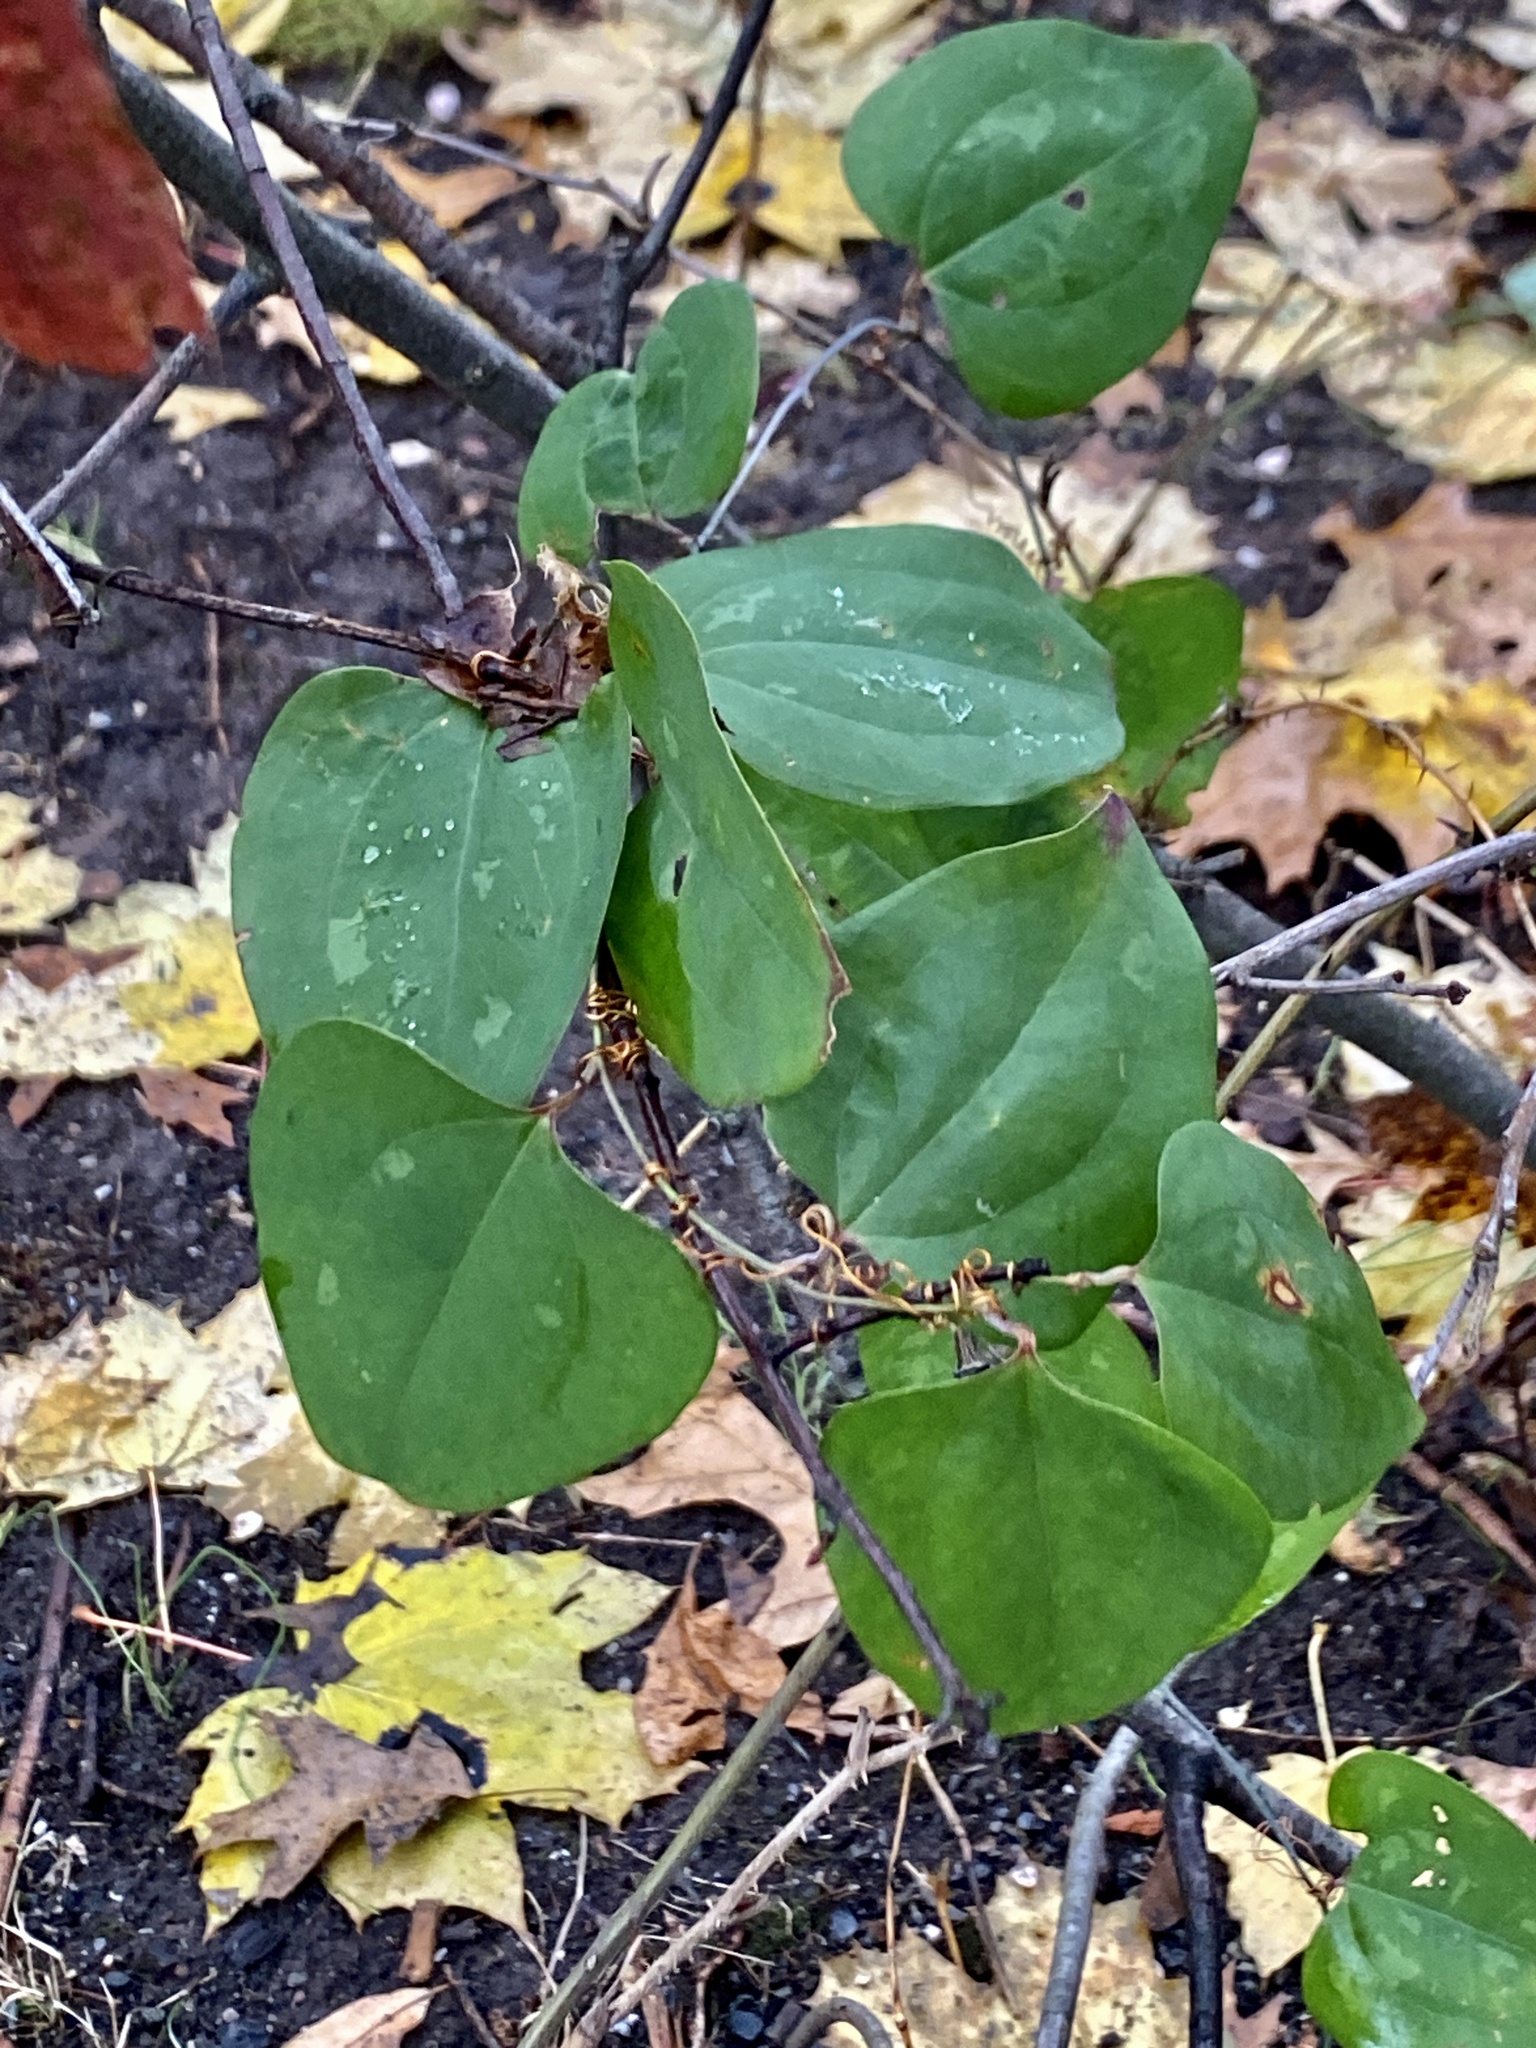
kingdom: Plantae
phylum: Tracheophyta
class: Liliopsida
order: Liliales
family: Smilacaceae
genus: Smilax
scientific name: Smilax glauca
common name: Cat greenbrier
